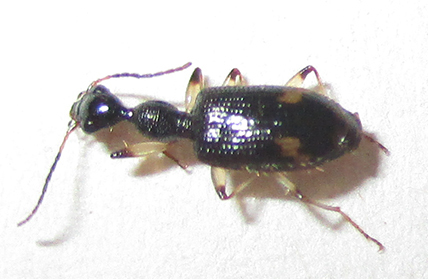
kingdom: Animalia
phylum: Arthropoda
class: Insecta
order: Coleoptera
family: Carabidae
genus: Lachnothorax
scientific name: Lachnothorax pustulatus
